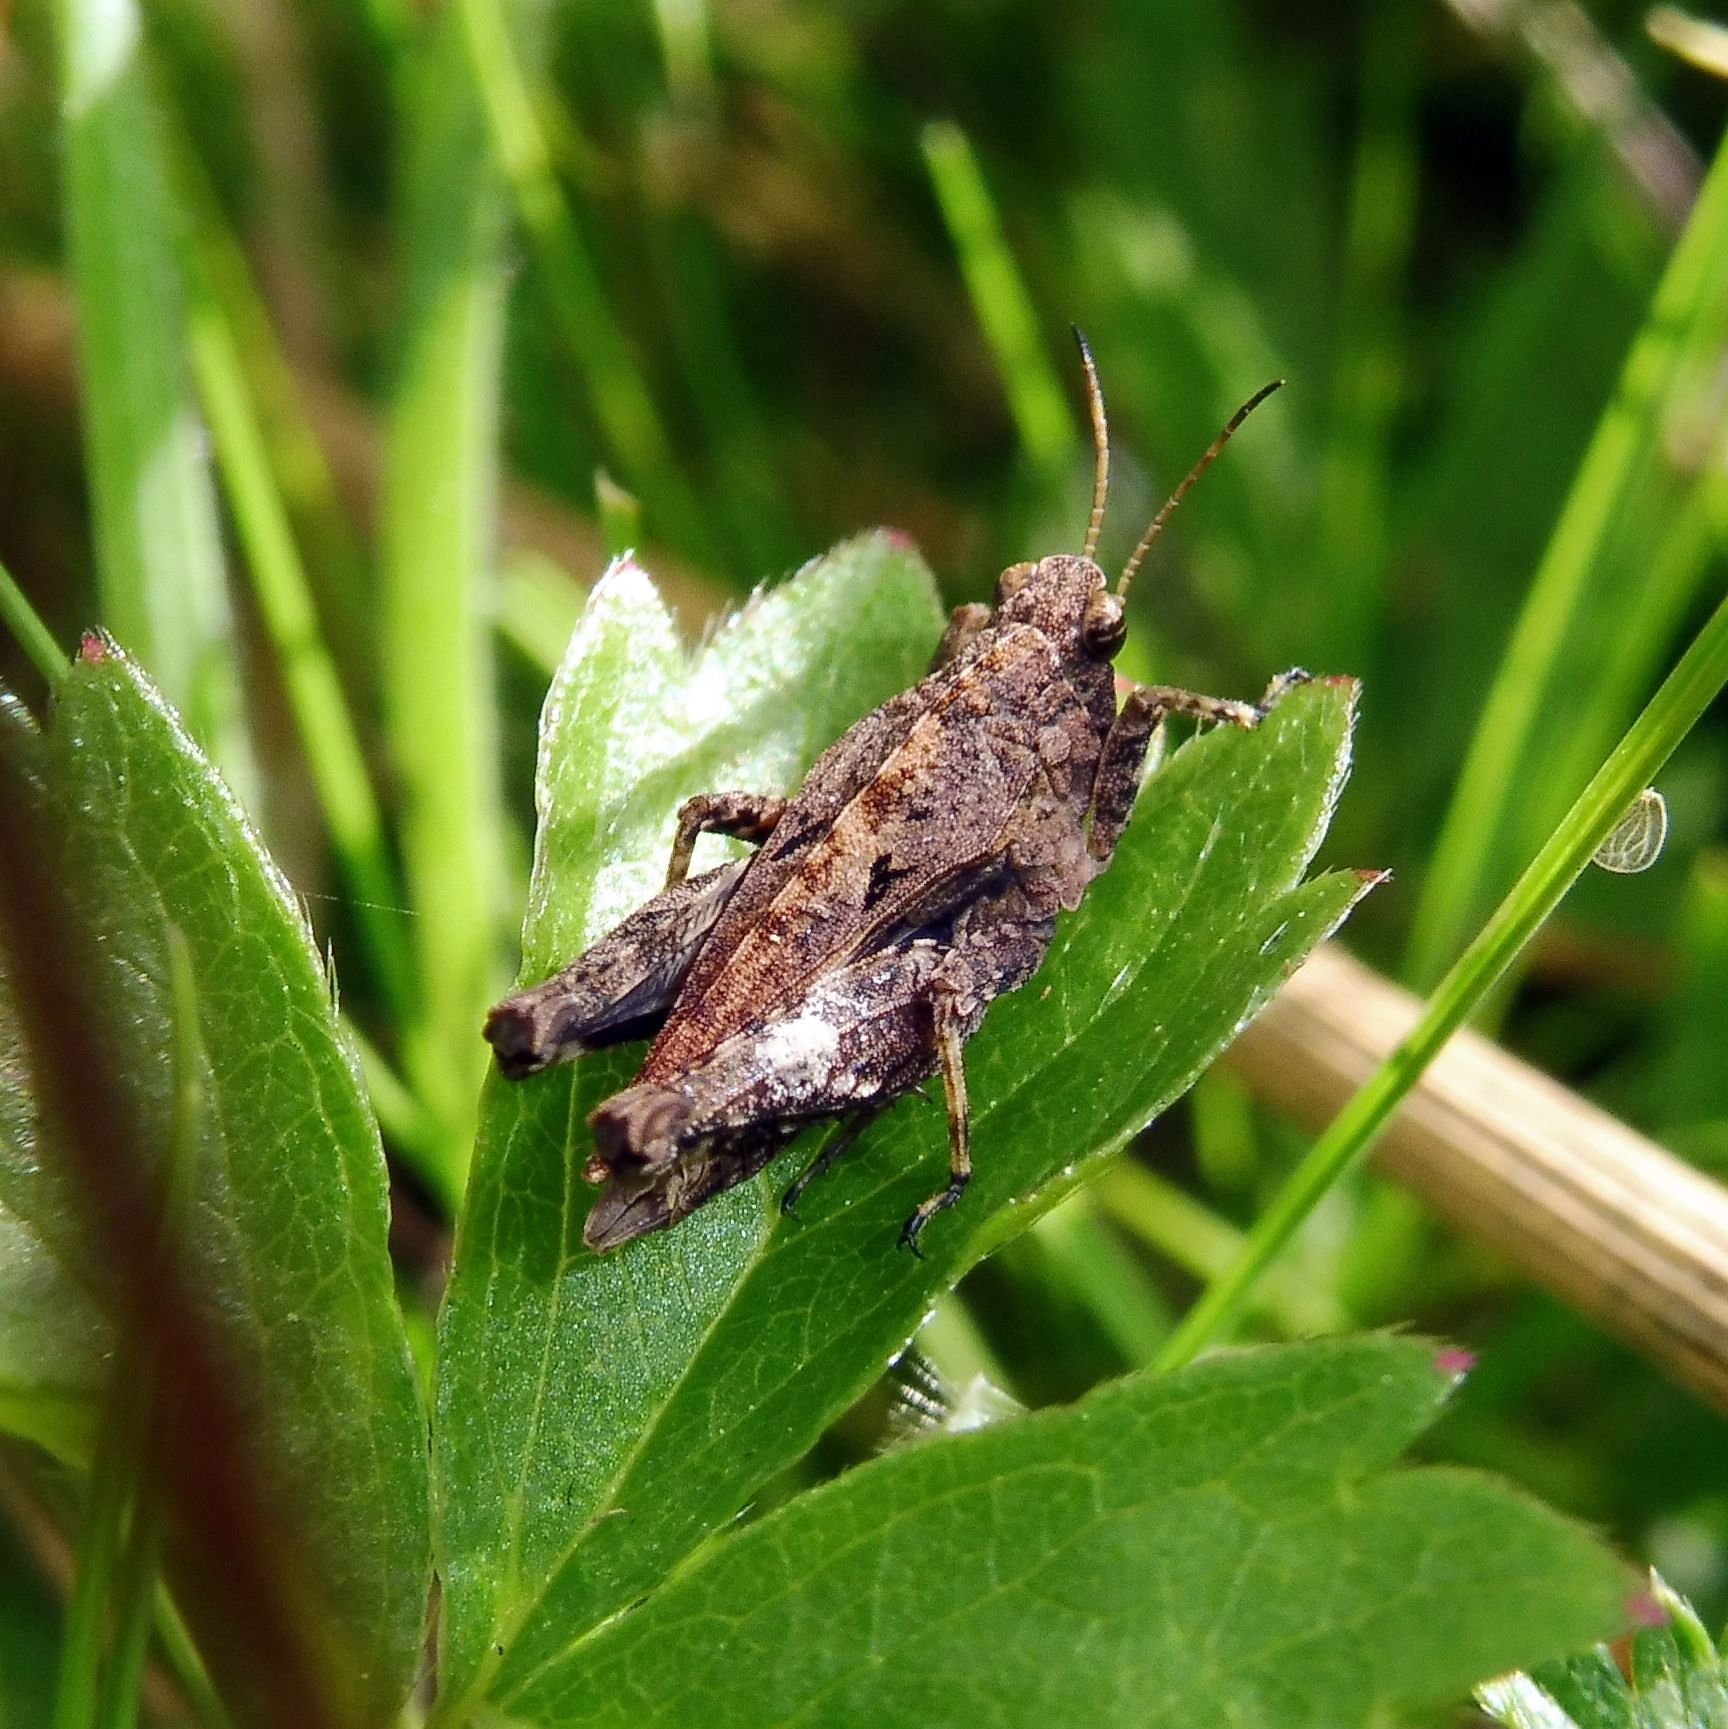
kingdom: Animalia
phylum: Arthropoda
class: Insecta
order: Orthoptera
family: Tetrigidae
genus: Tetrix
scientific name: Tetrix undulata
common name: Common groundhopper
